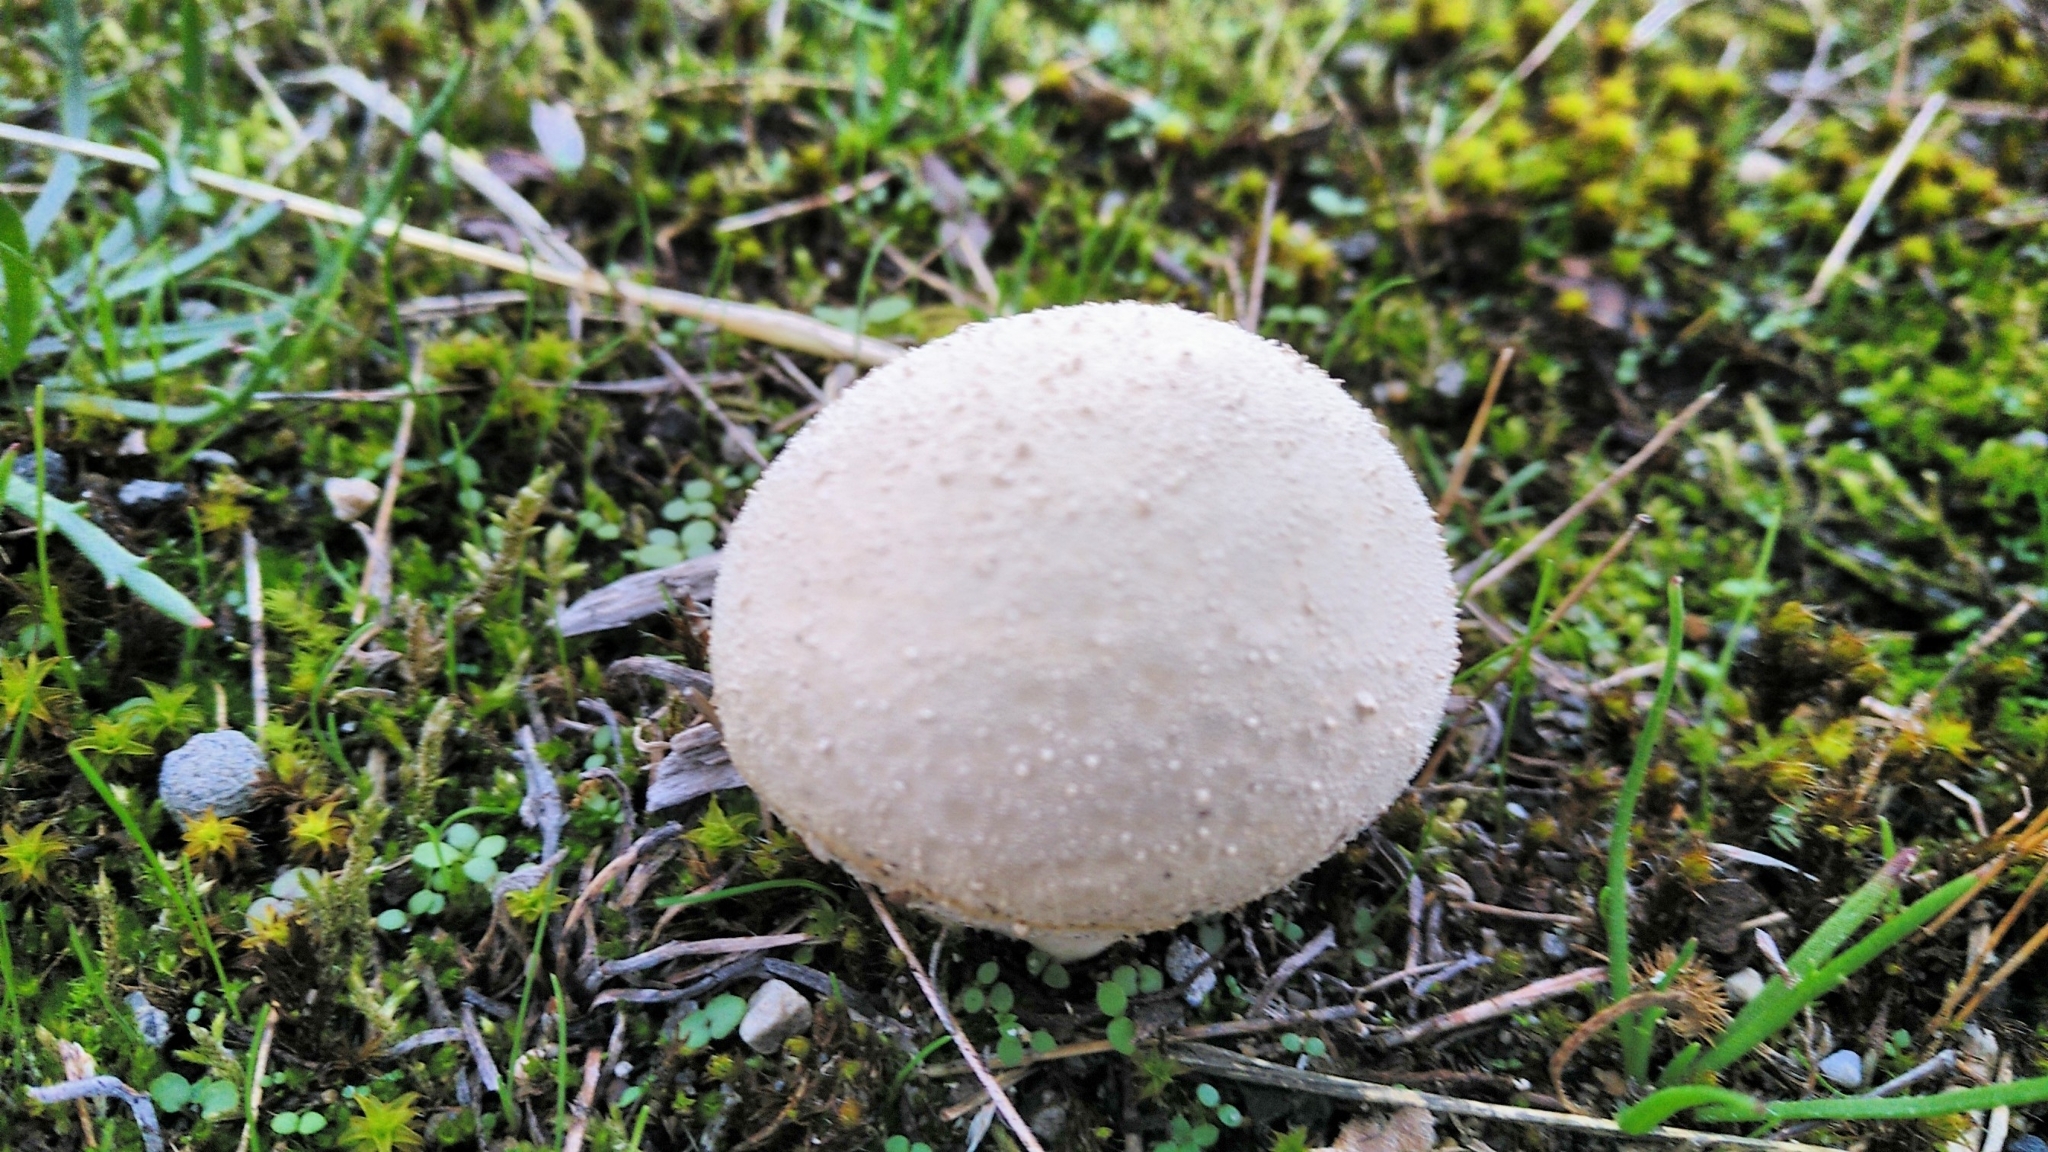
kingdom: Fungi
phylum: Basidiomycota
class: Agaricomycetes
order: Agaricales
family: Lycoperdaceae
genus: Lycoperdon
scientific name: Lycoperdon perlatum
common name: Common puffball
